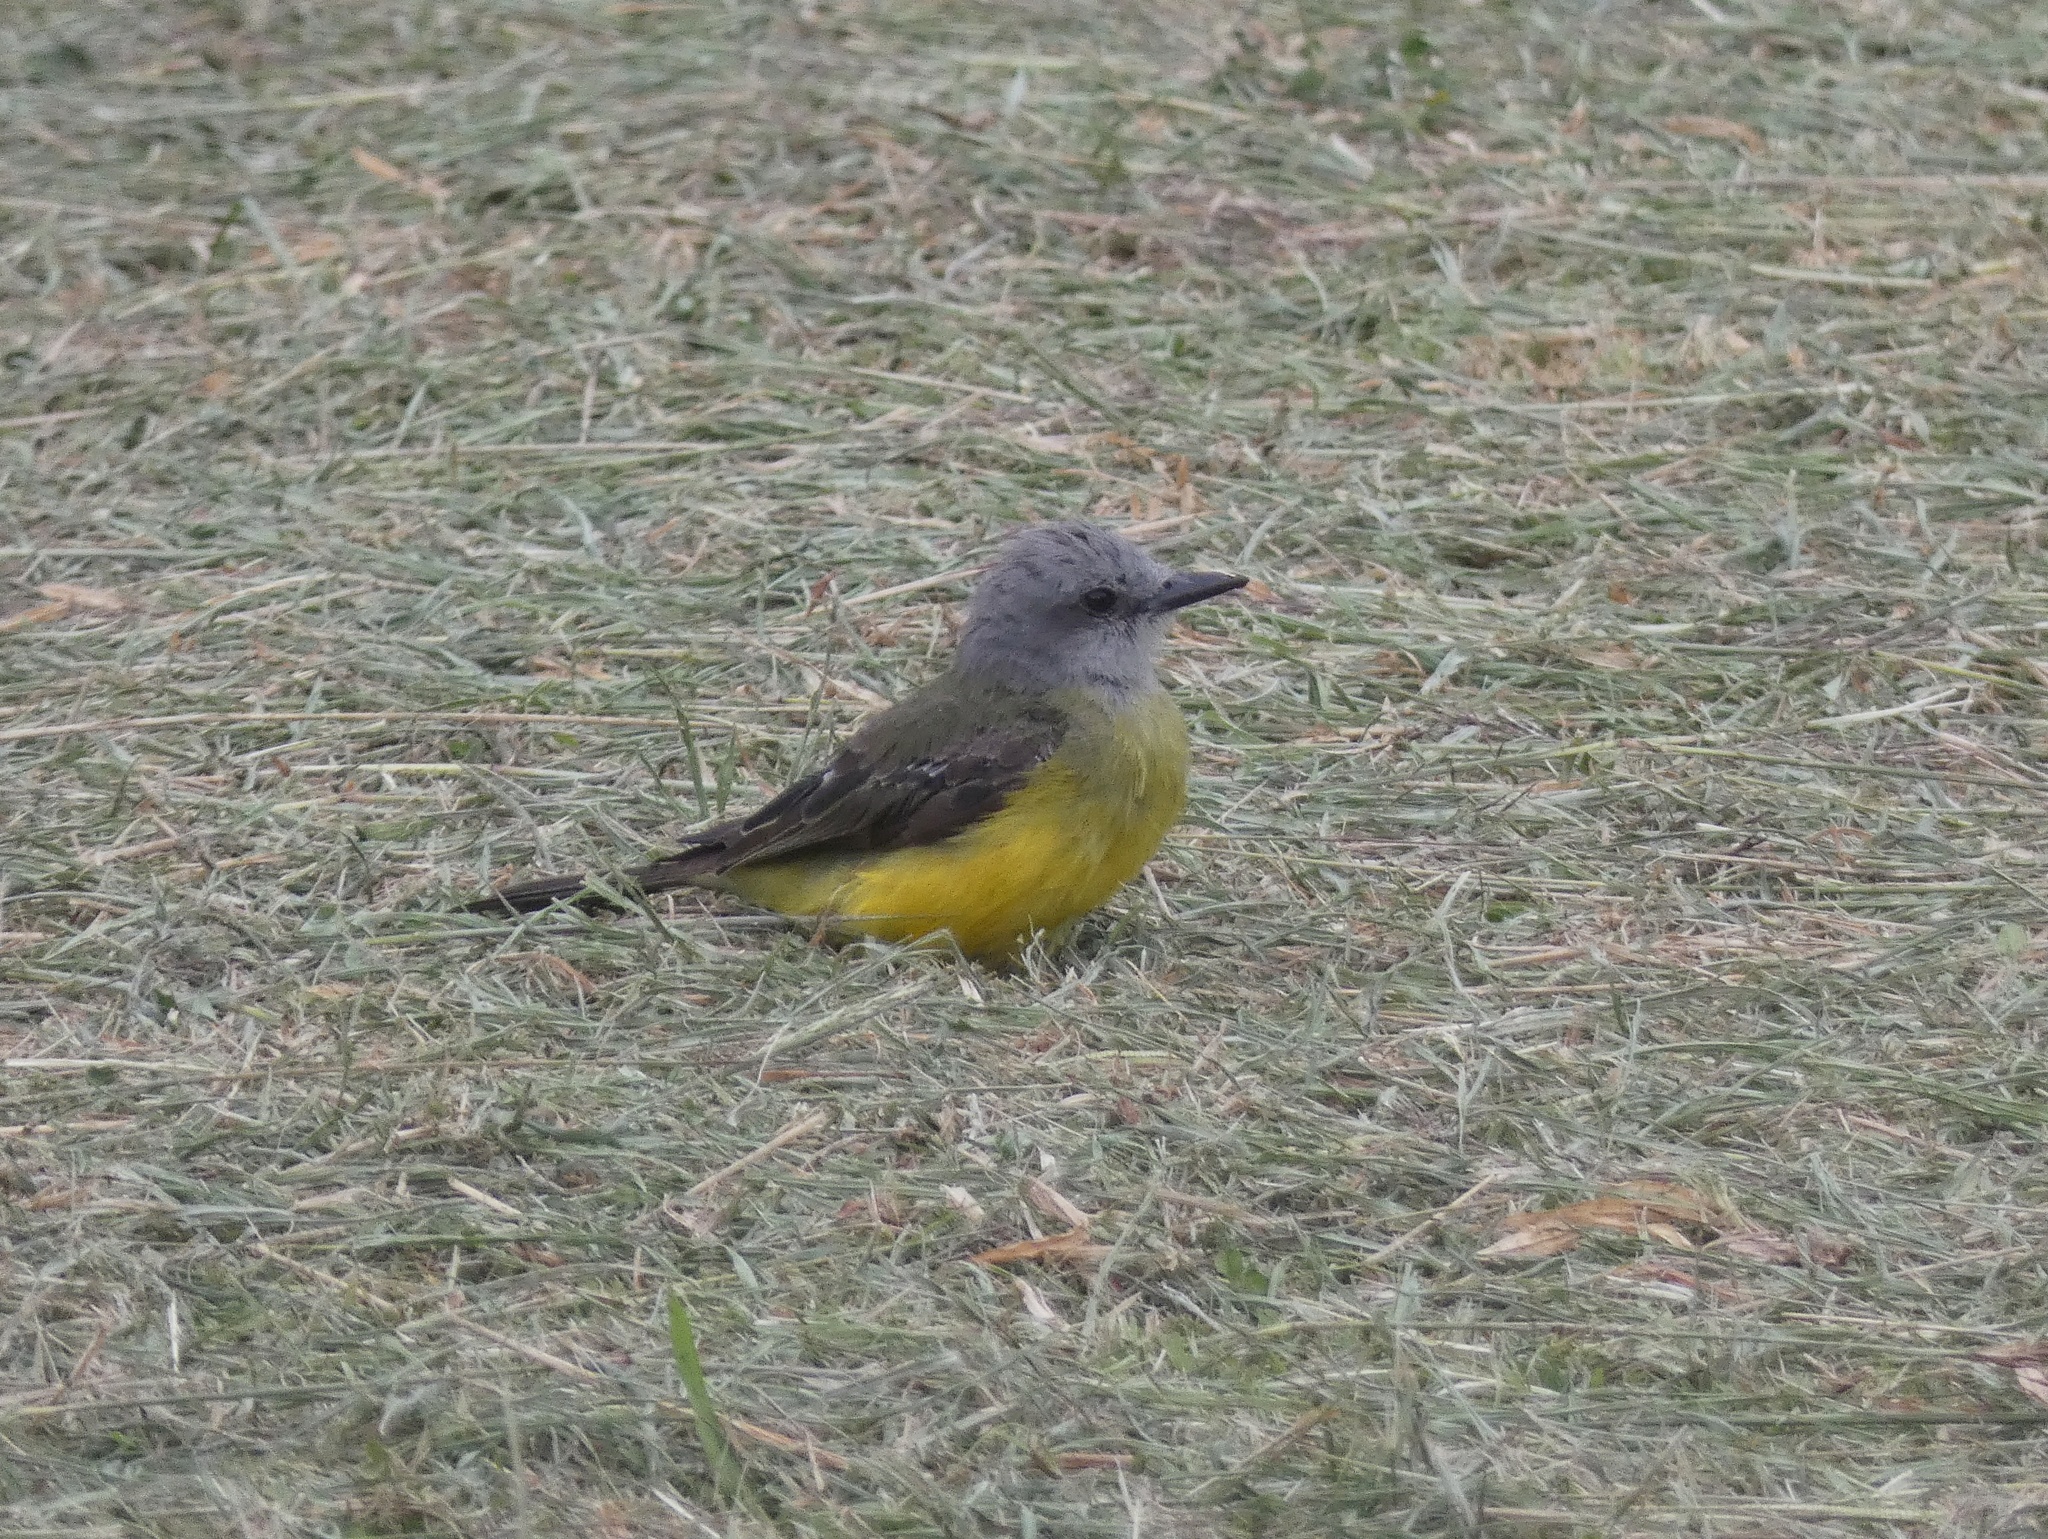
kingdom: Animalia
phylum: Chordata
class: Aves
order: Passeriformes
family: Tyrannidae
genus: Tyrannus
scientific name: Tyrannus melancholicus
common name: Tropical kingbird
